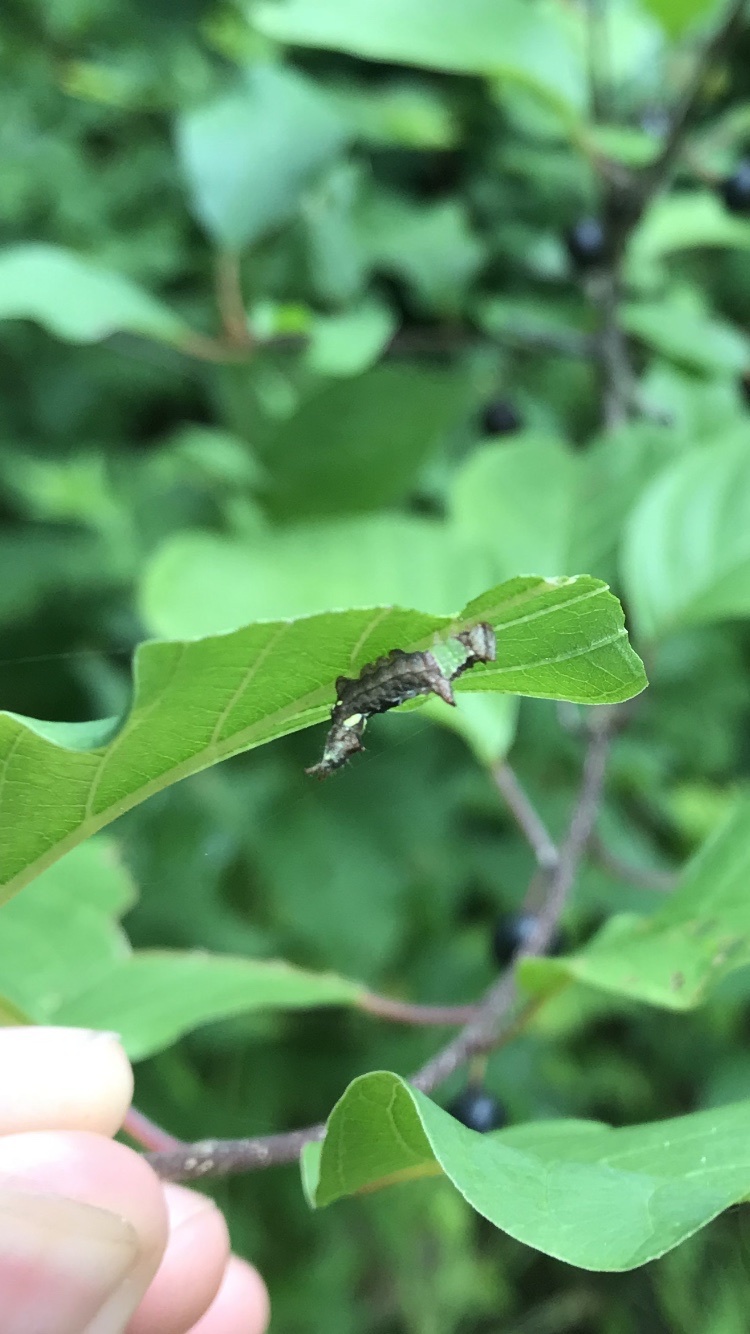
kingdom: Animalia
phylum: Arthropoda
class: Insecta
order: Lepidoptera
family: Notodontidae
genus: Schizura
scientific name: Schizura
